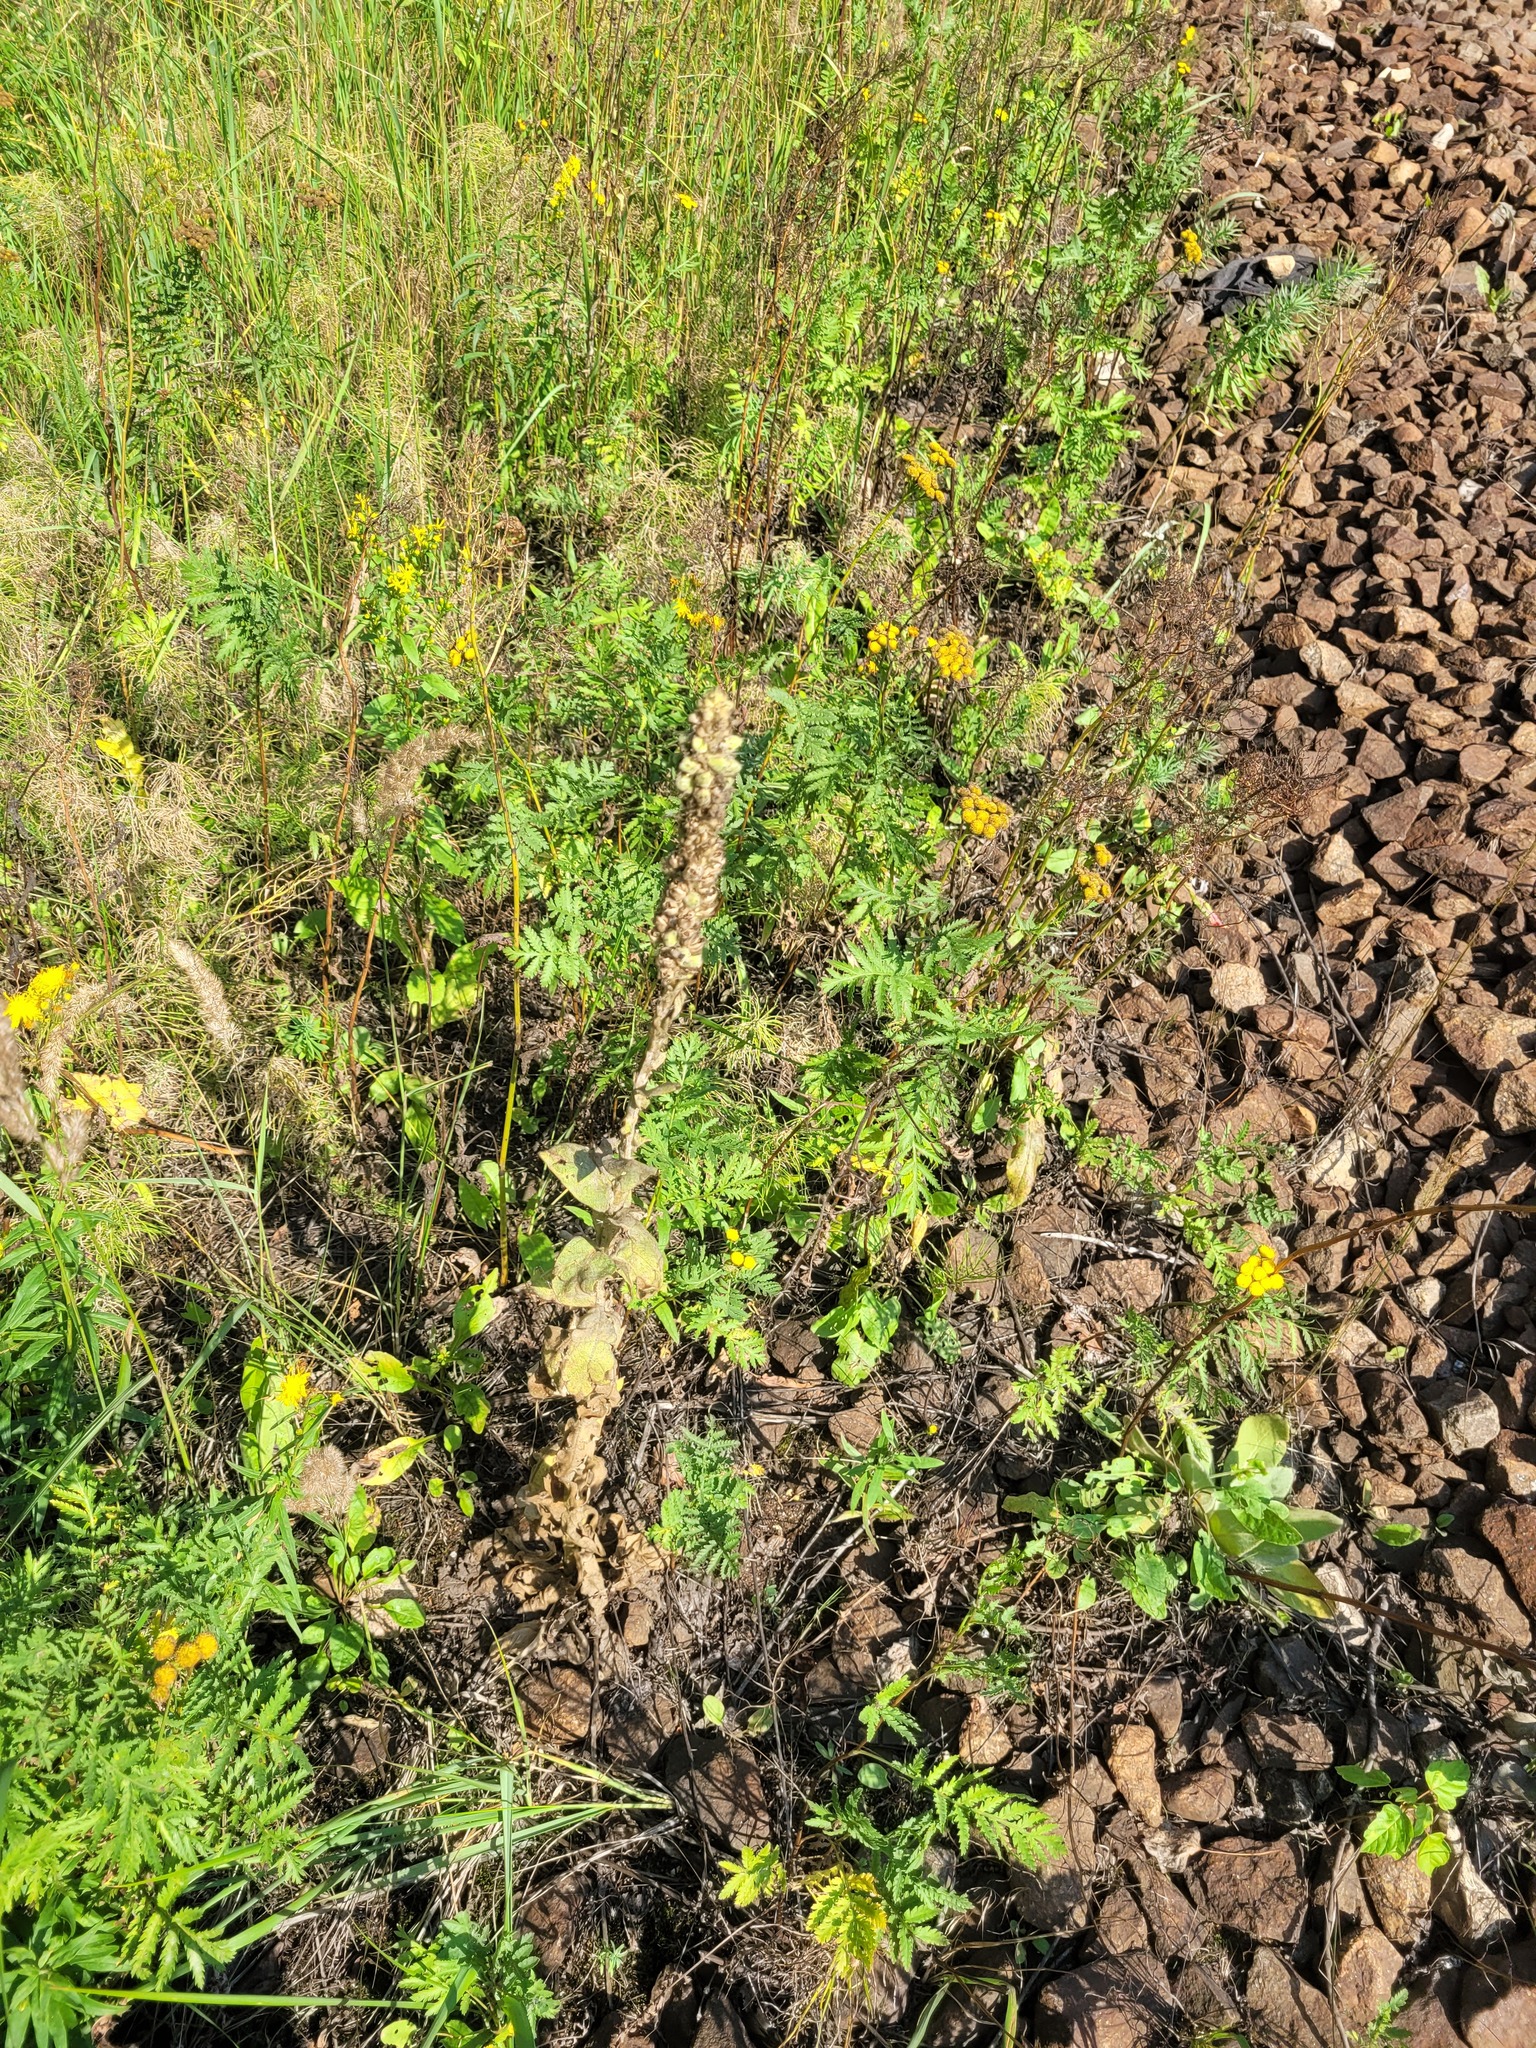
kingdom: Plantae
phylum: Tracheophyta
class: Magnoliopsida
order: Lamiales
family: Scrophulariaceae
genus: Verbascum
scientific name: Verbascum thapsus
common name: Common mullein
